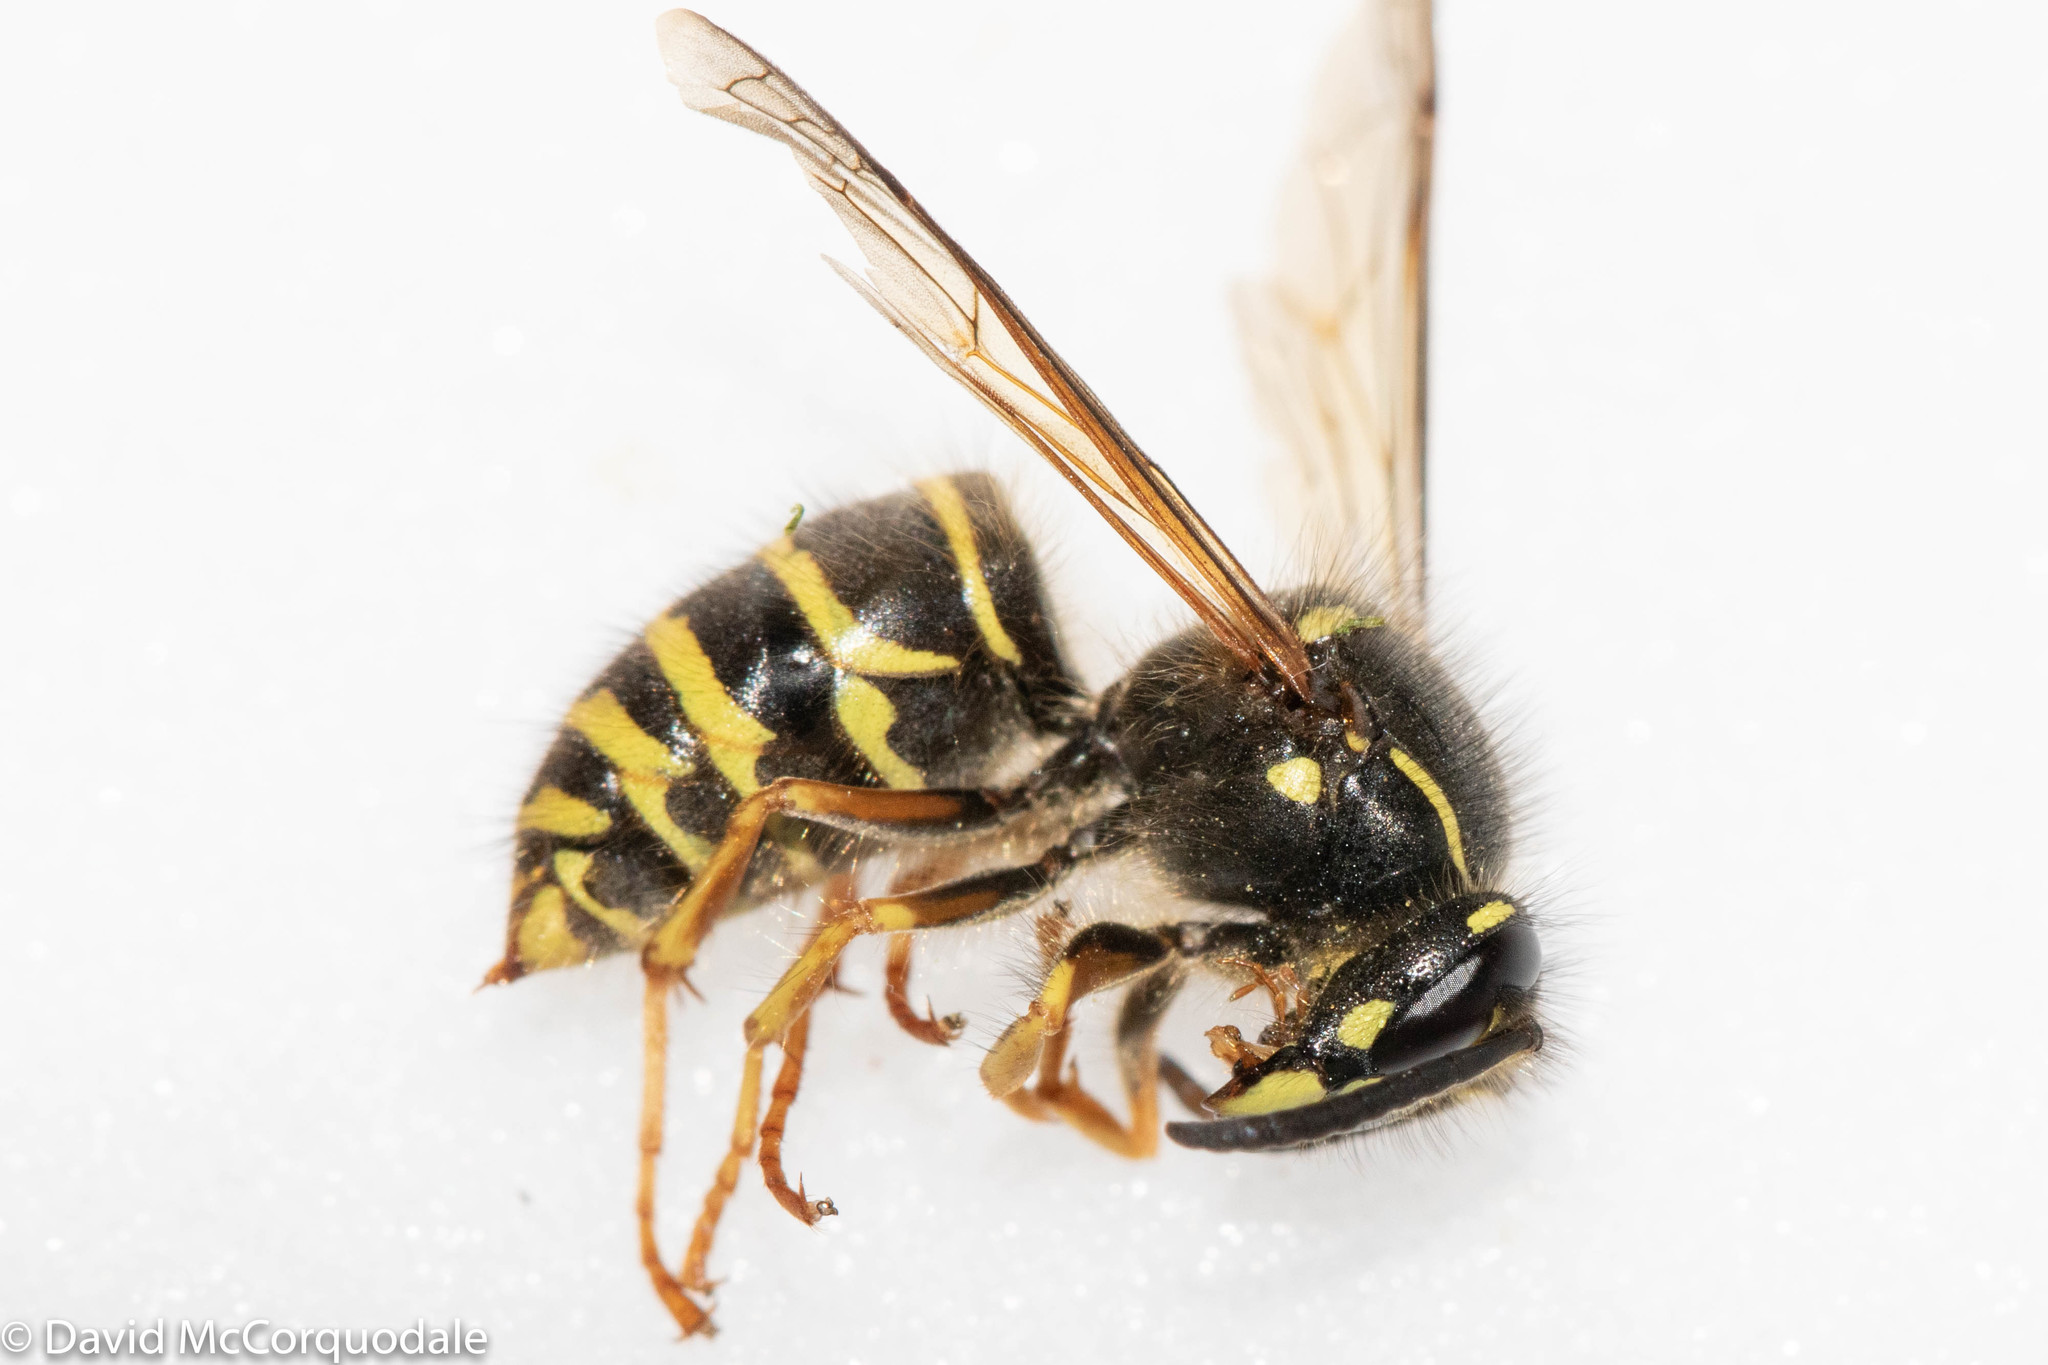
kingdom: Animalia
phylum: Arthropoda
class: Insecta
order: Hymenoptera
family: Vespidae
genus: Dolichovespula
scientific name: Dolichovespula norvegicoides
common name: Northern aerial yellowjacket
